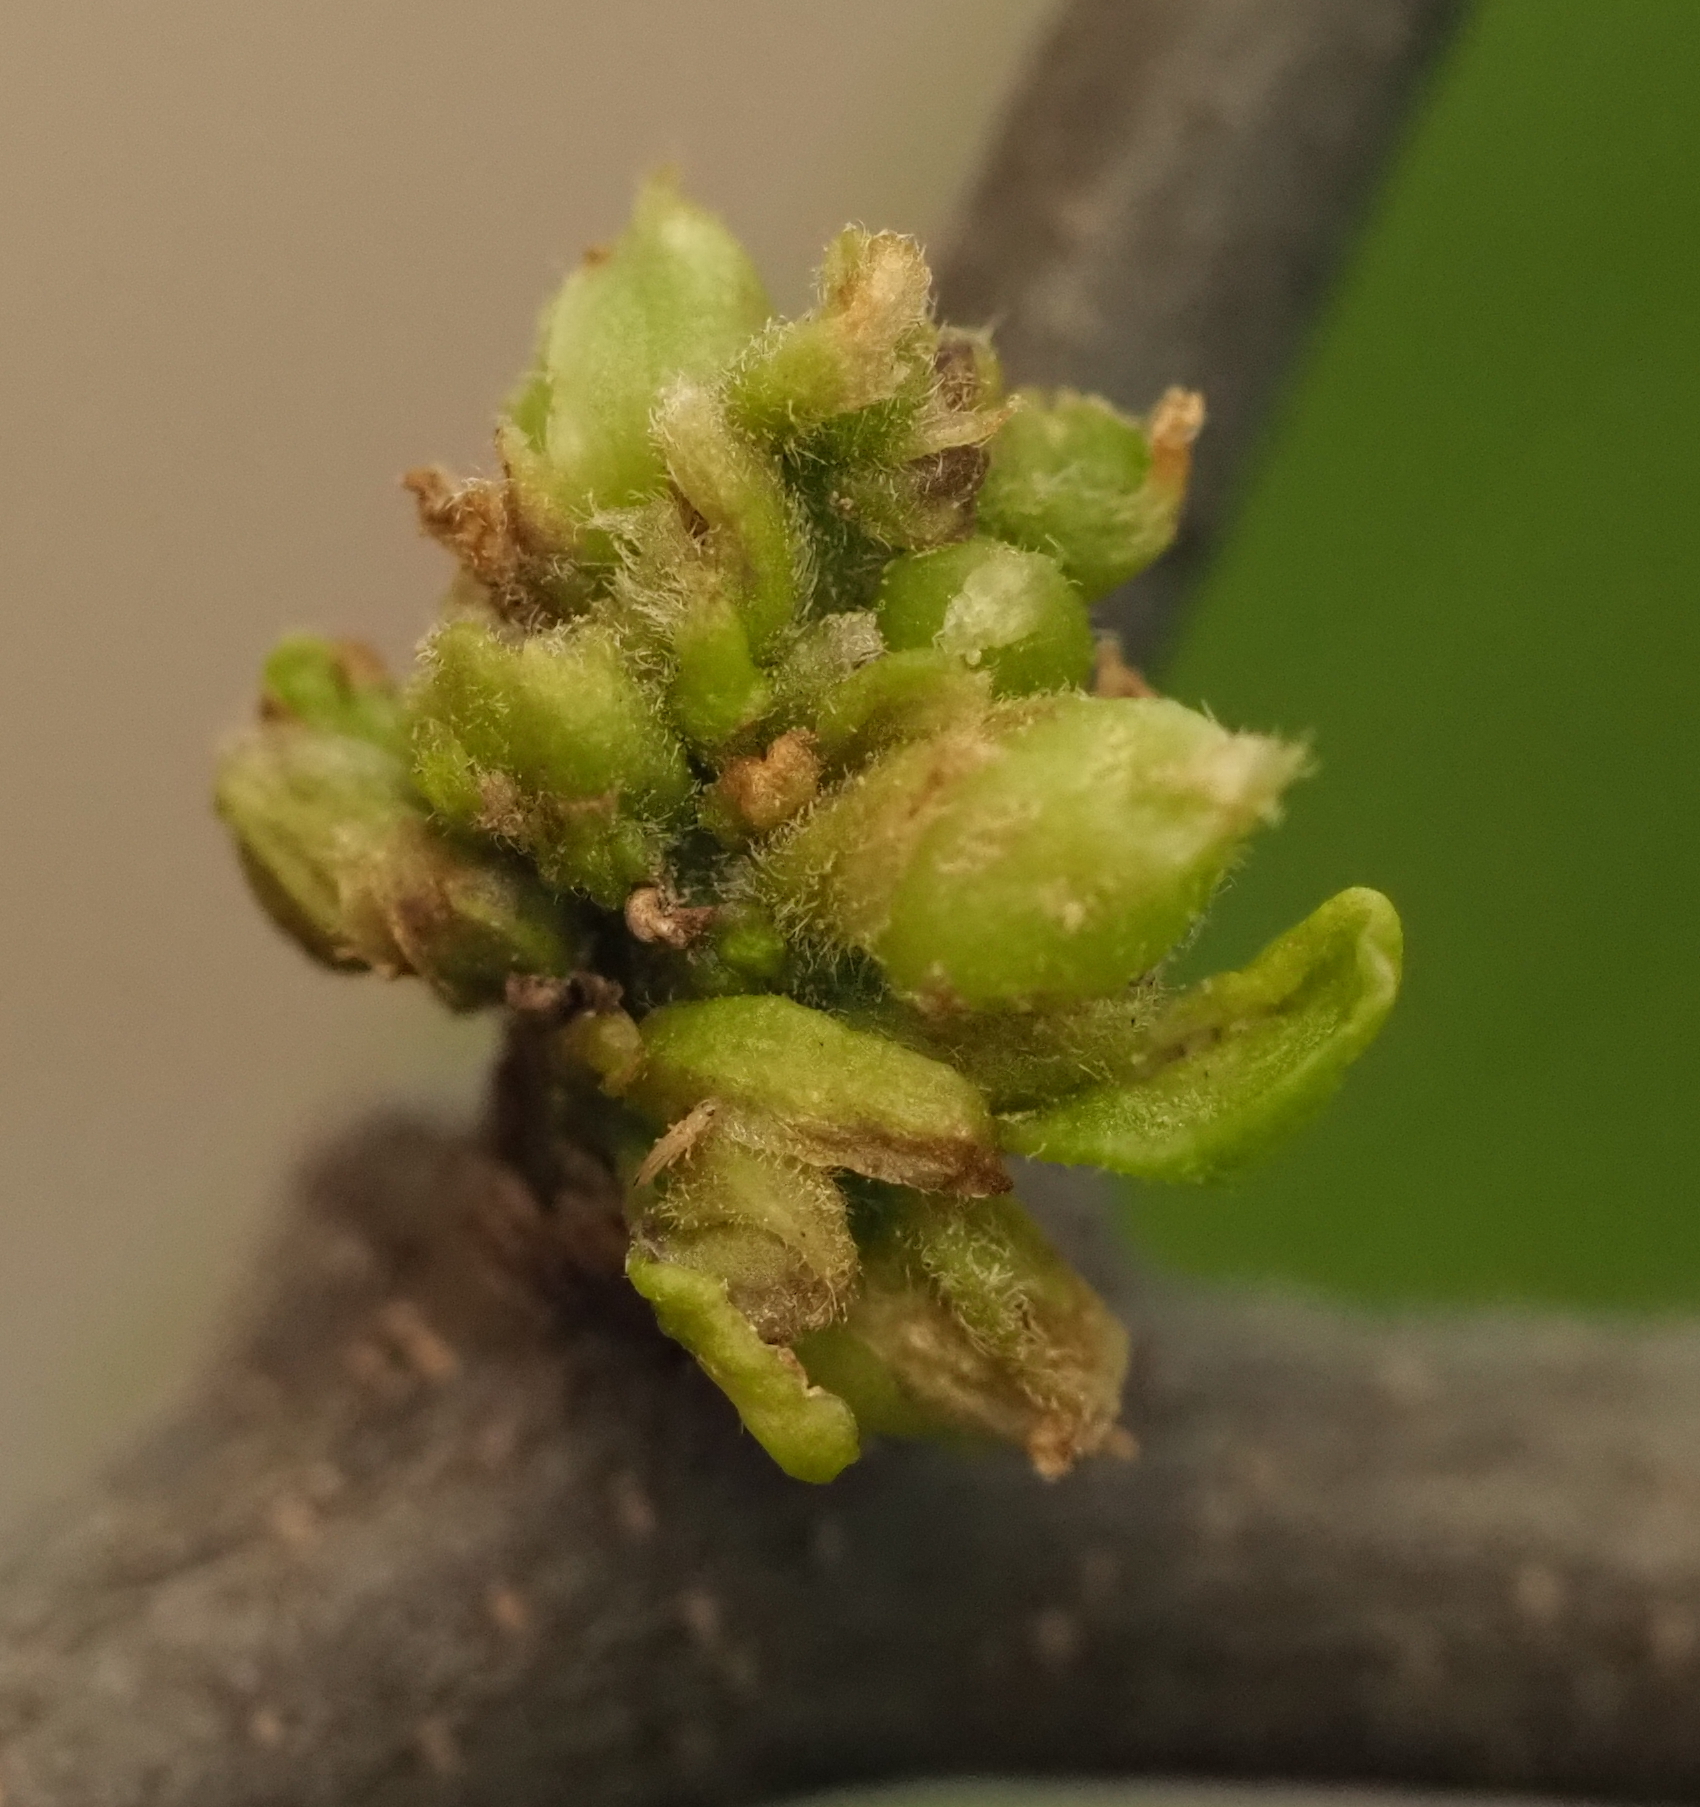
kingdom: Animalia
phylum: Arthropoda
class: Arachnida
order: Trombidiformes
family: Eriophyidae
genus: Aceria
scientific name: Aceria
